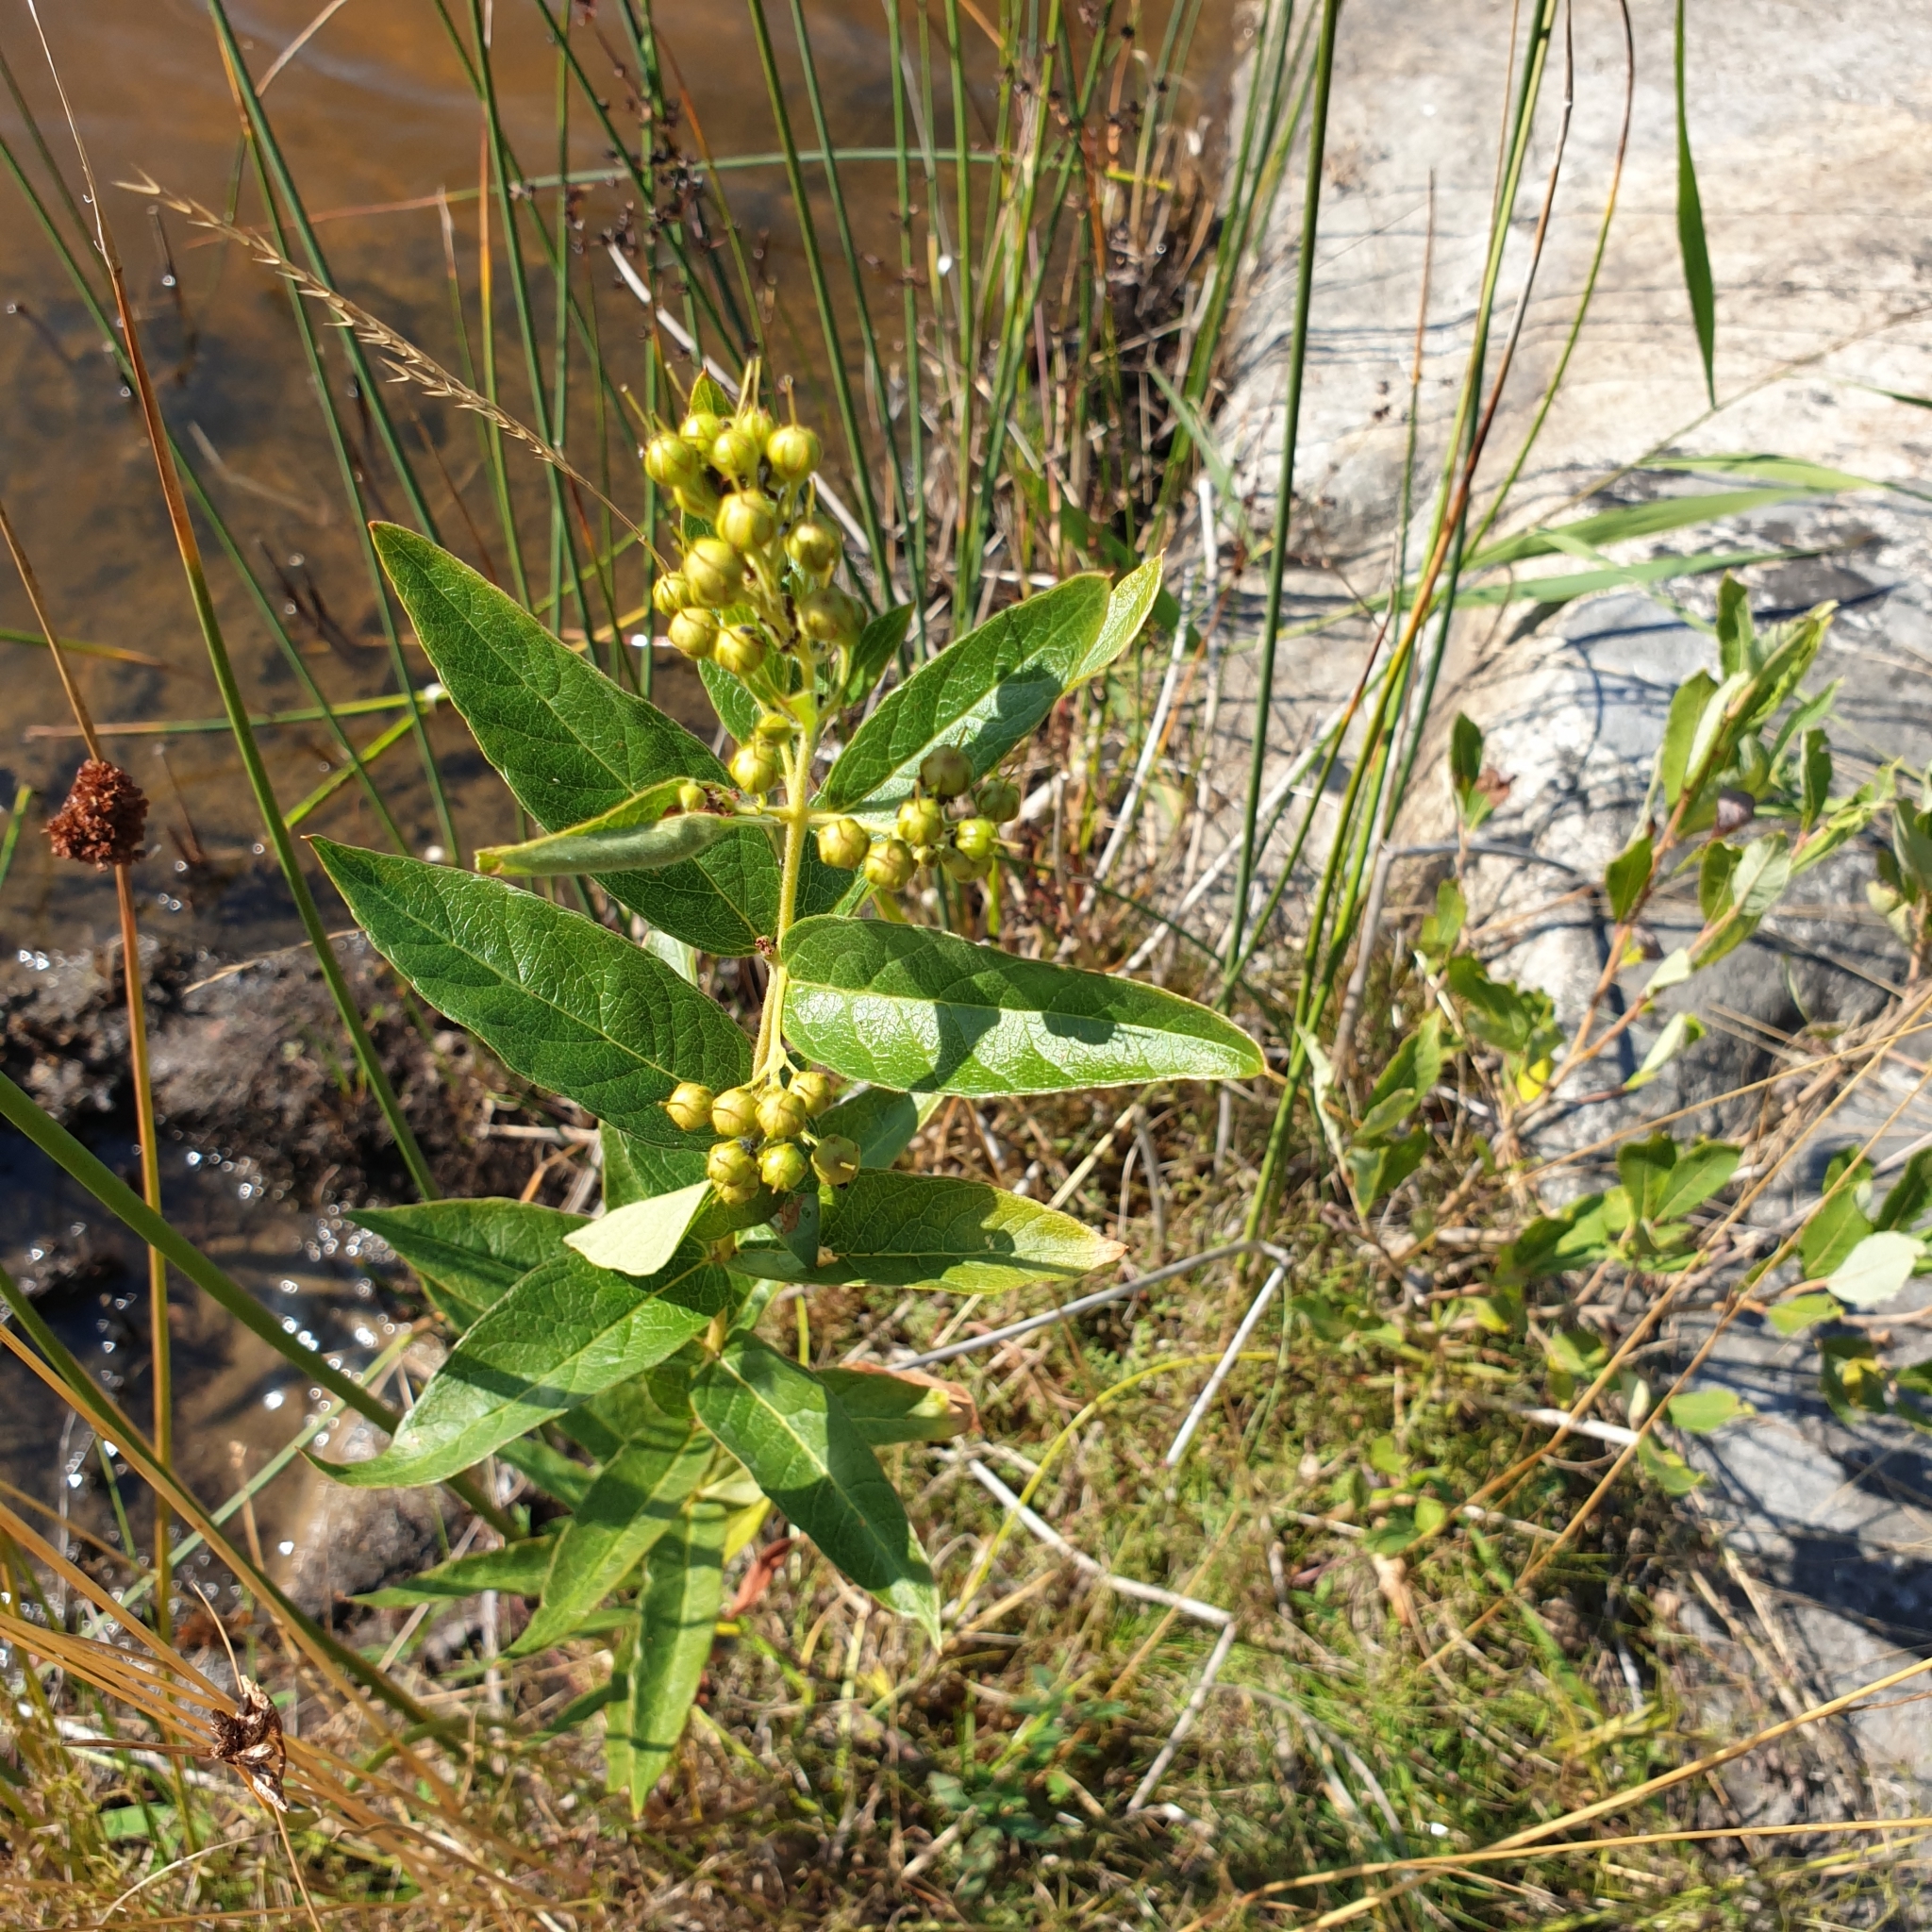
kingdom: Plantae
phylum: Tracheophyta
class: Magnoliopsida
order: Ericales
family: Primulaceae
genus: Lysimachia
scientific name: Lysimachia vulgaris
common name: Yellow loosestrife
